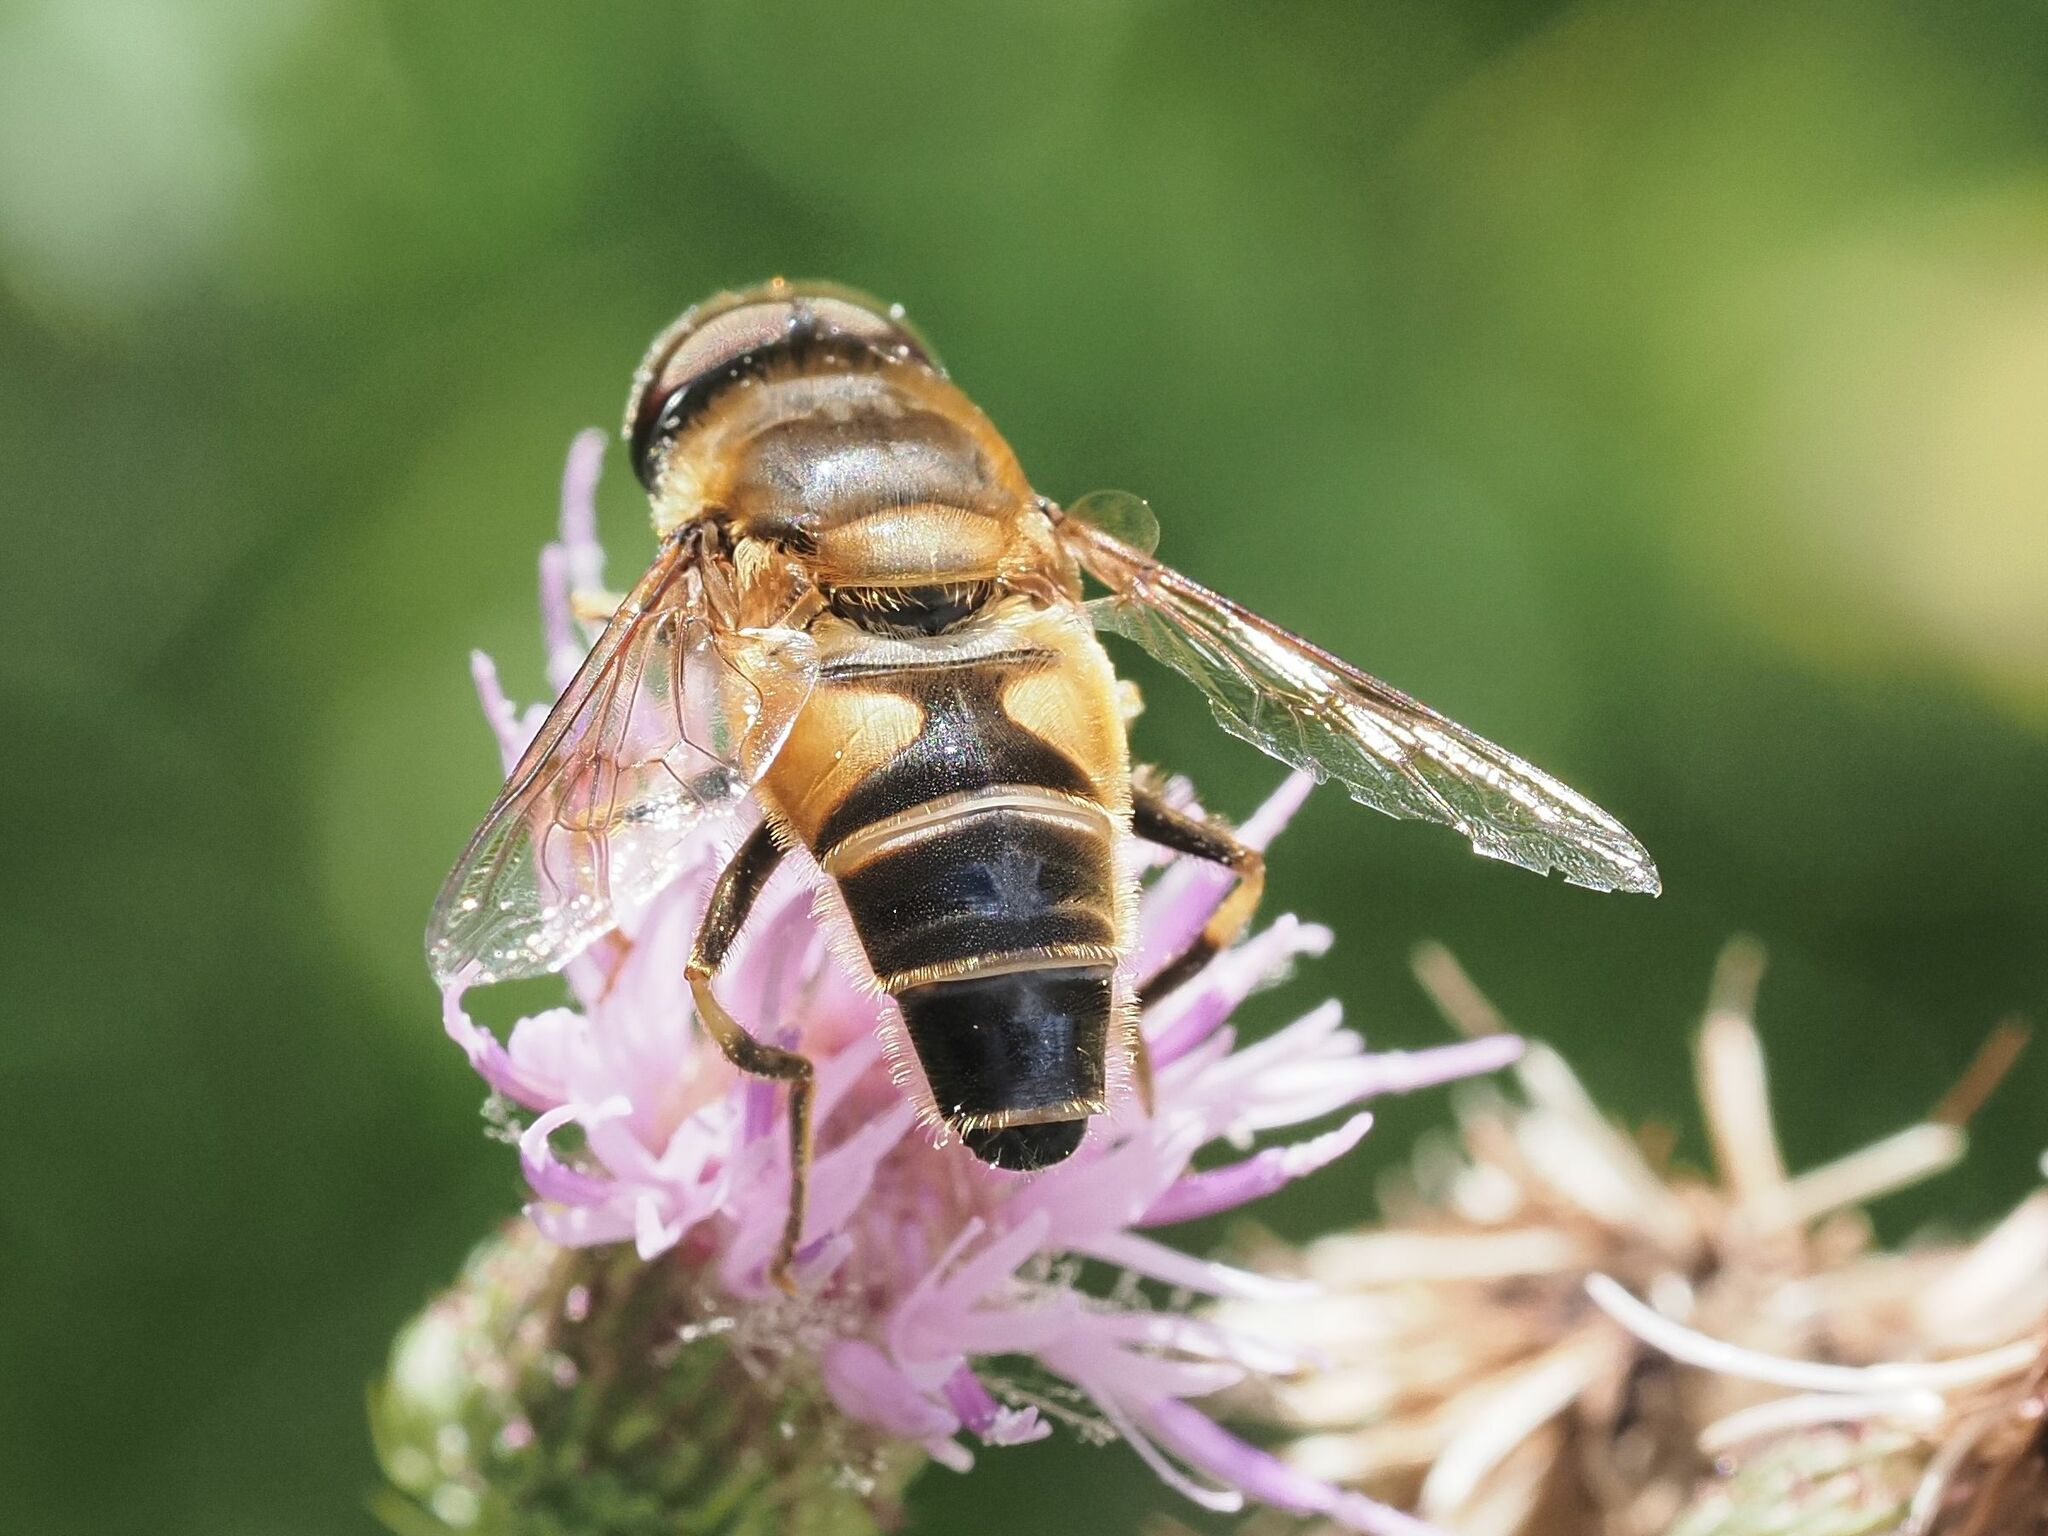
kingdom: Animalia
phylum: Arthropoda
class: Insecta
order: Diptera
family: Syrphidae
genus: Eristalis
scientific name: Eristalis pertinax
